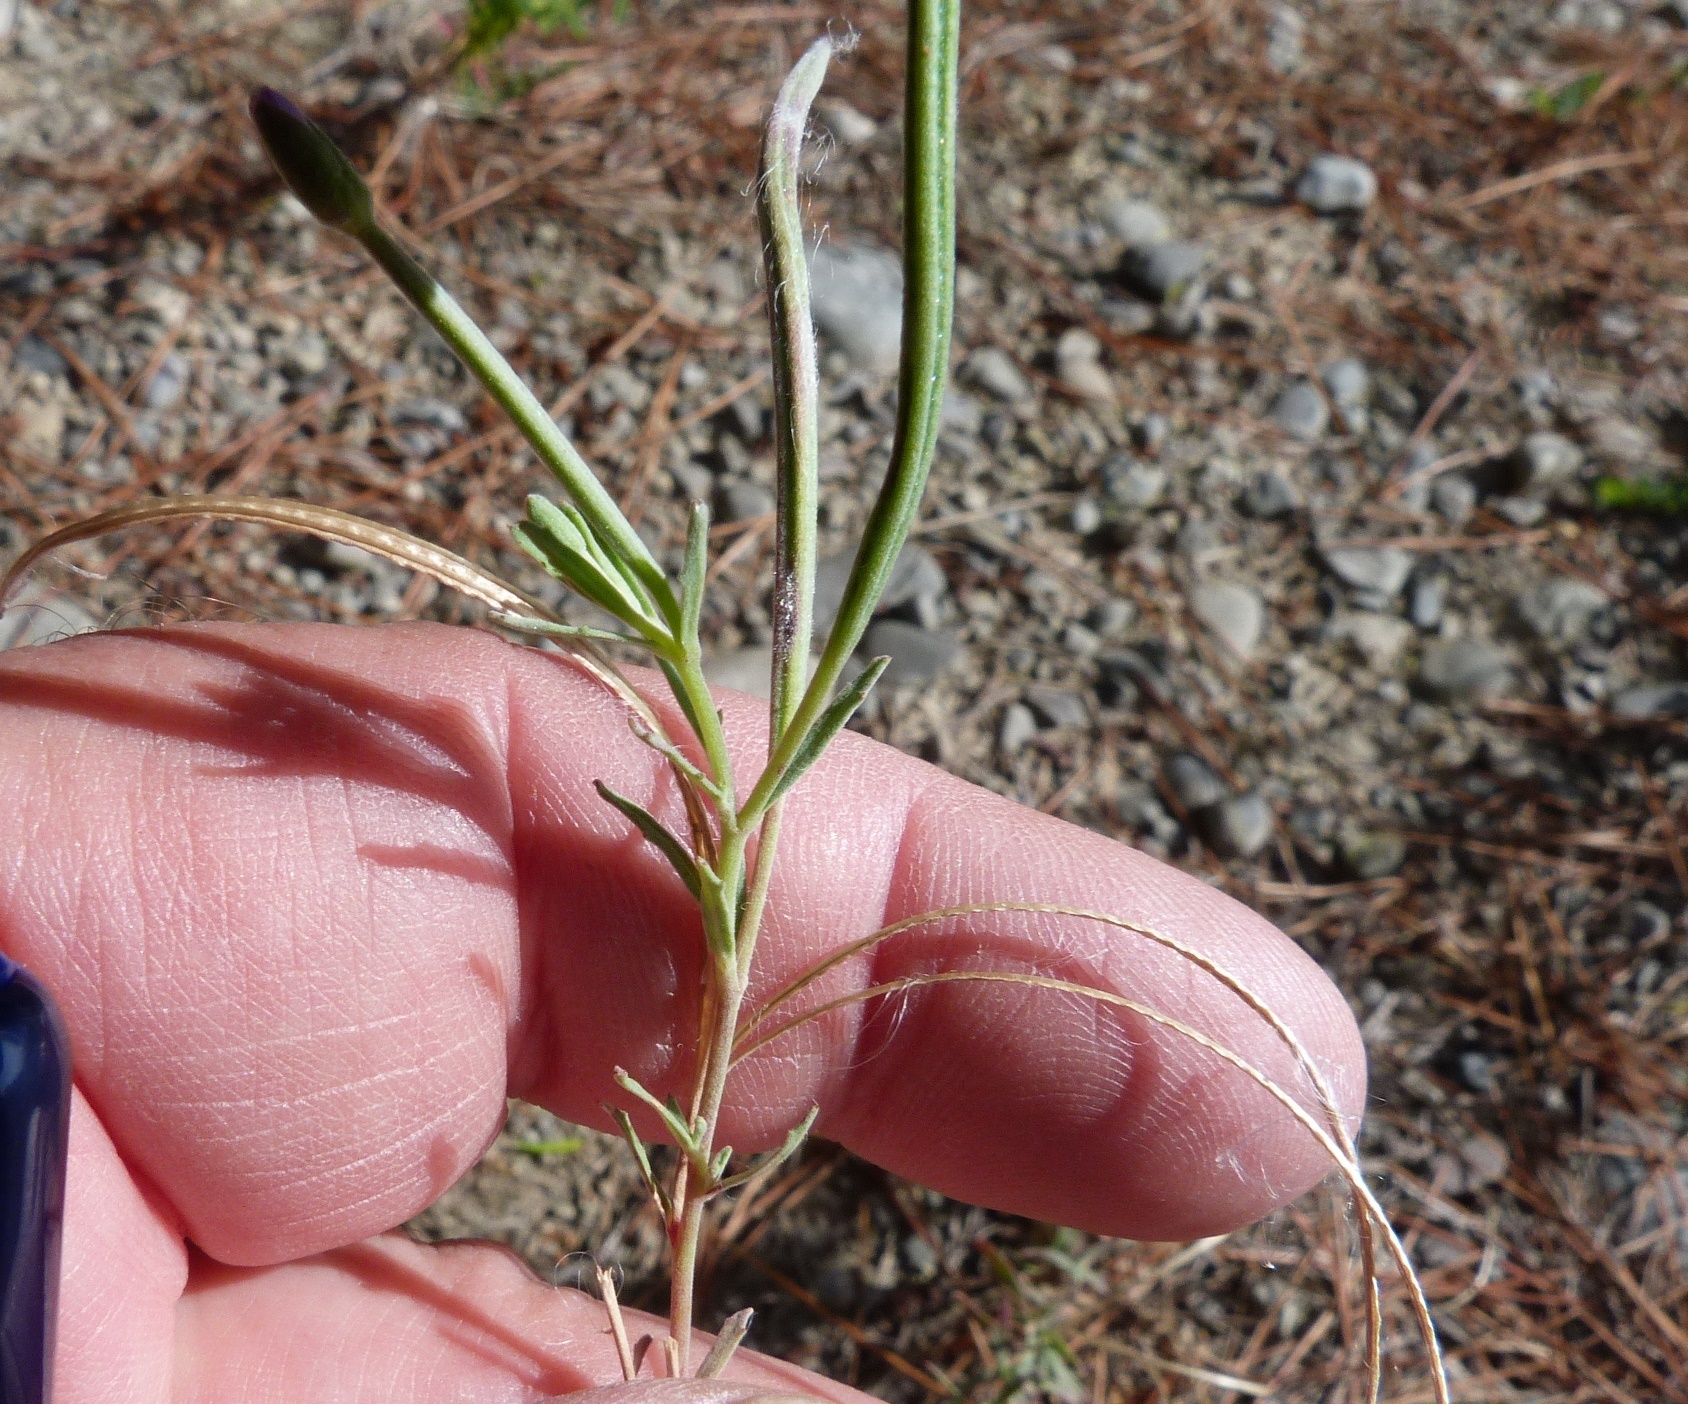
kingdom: Plantae
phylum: Tracheophyta
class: Magnoliopsida
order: Myrtales
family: Onagraceae
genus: Epilobium
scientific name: Epilobium billardierianum
